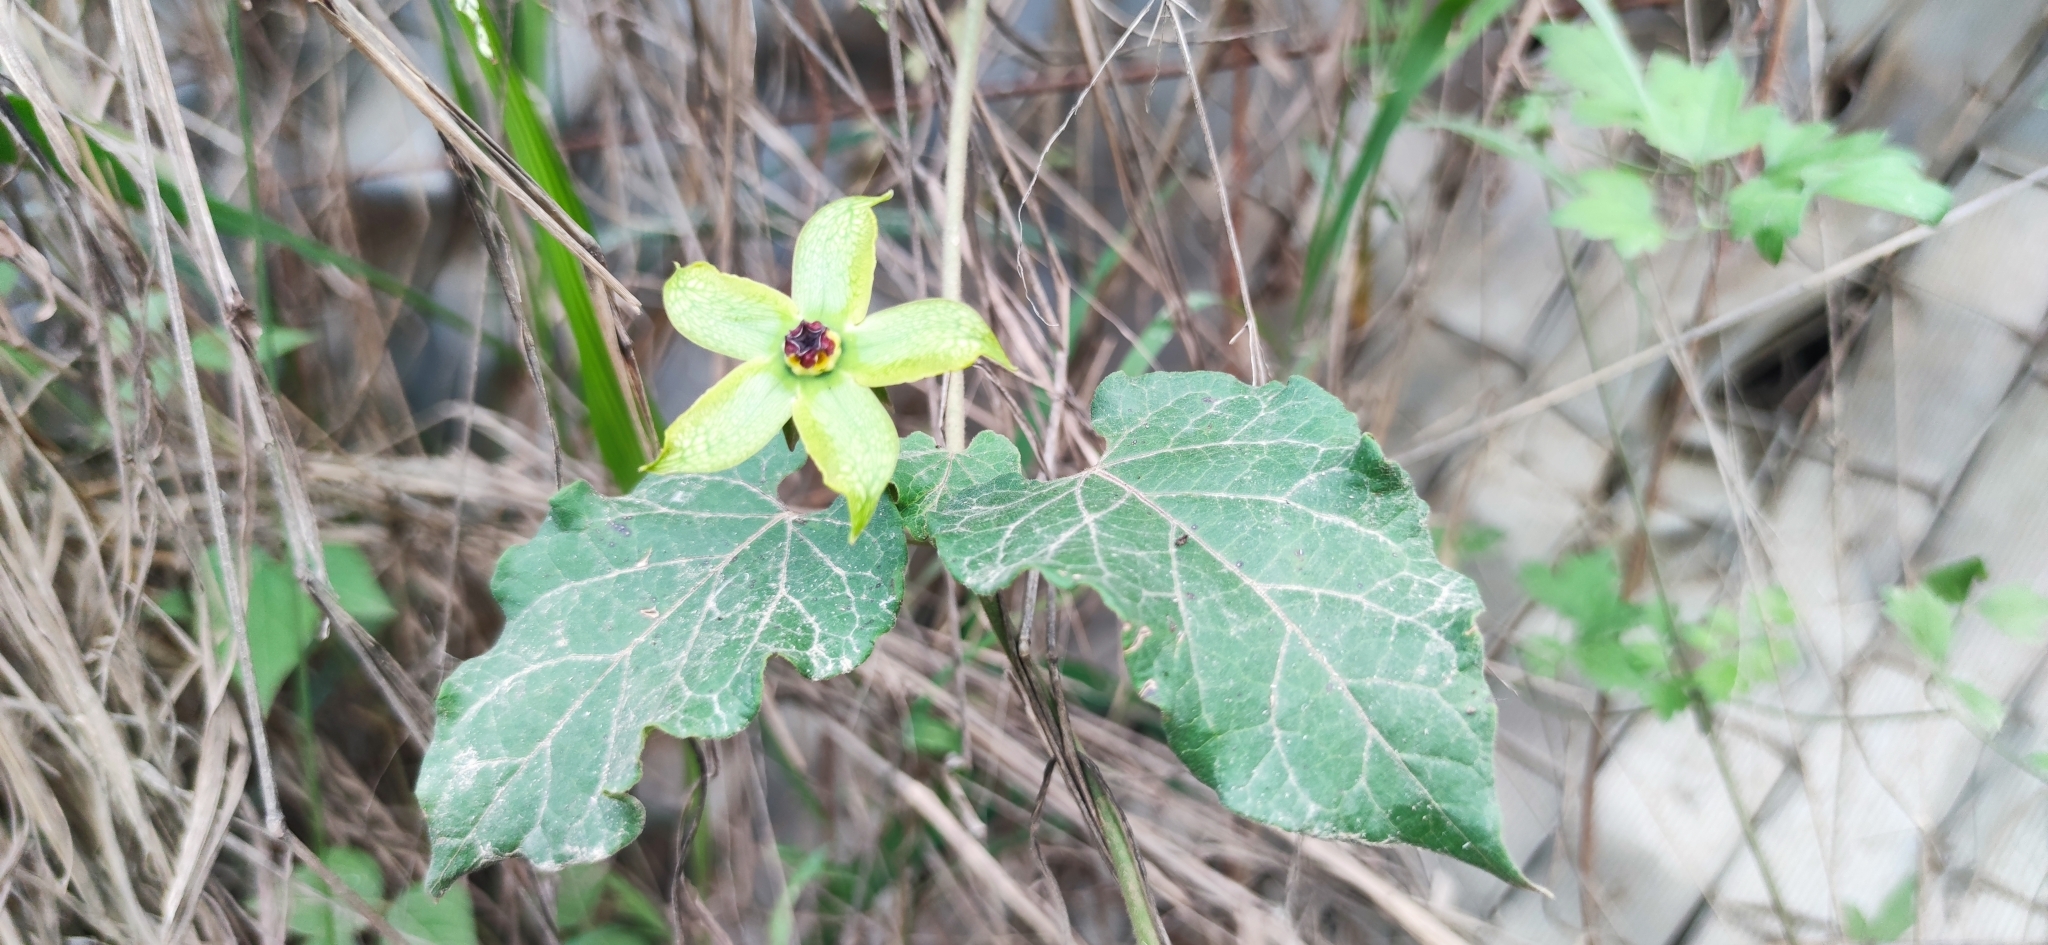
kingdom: Plantae
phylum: Tracheophyta
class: Magnoliopsida
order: Gentianales
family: Apocynaceae
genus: Gonolobus
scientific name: Gonolobus erianthus
